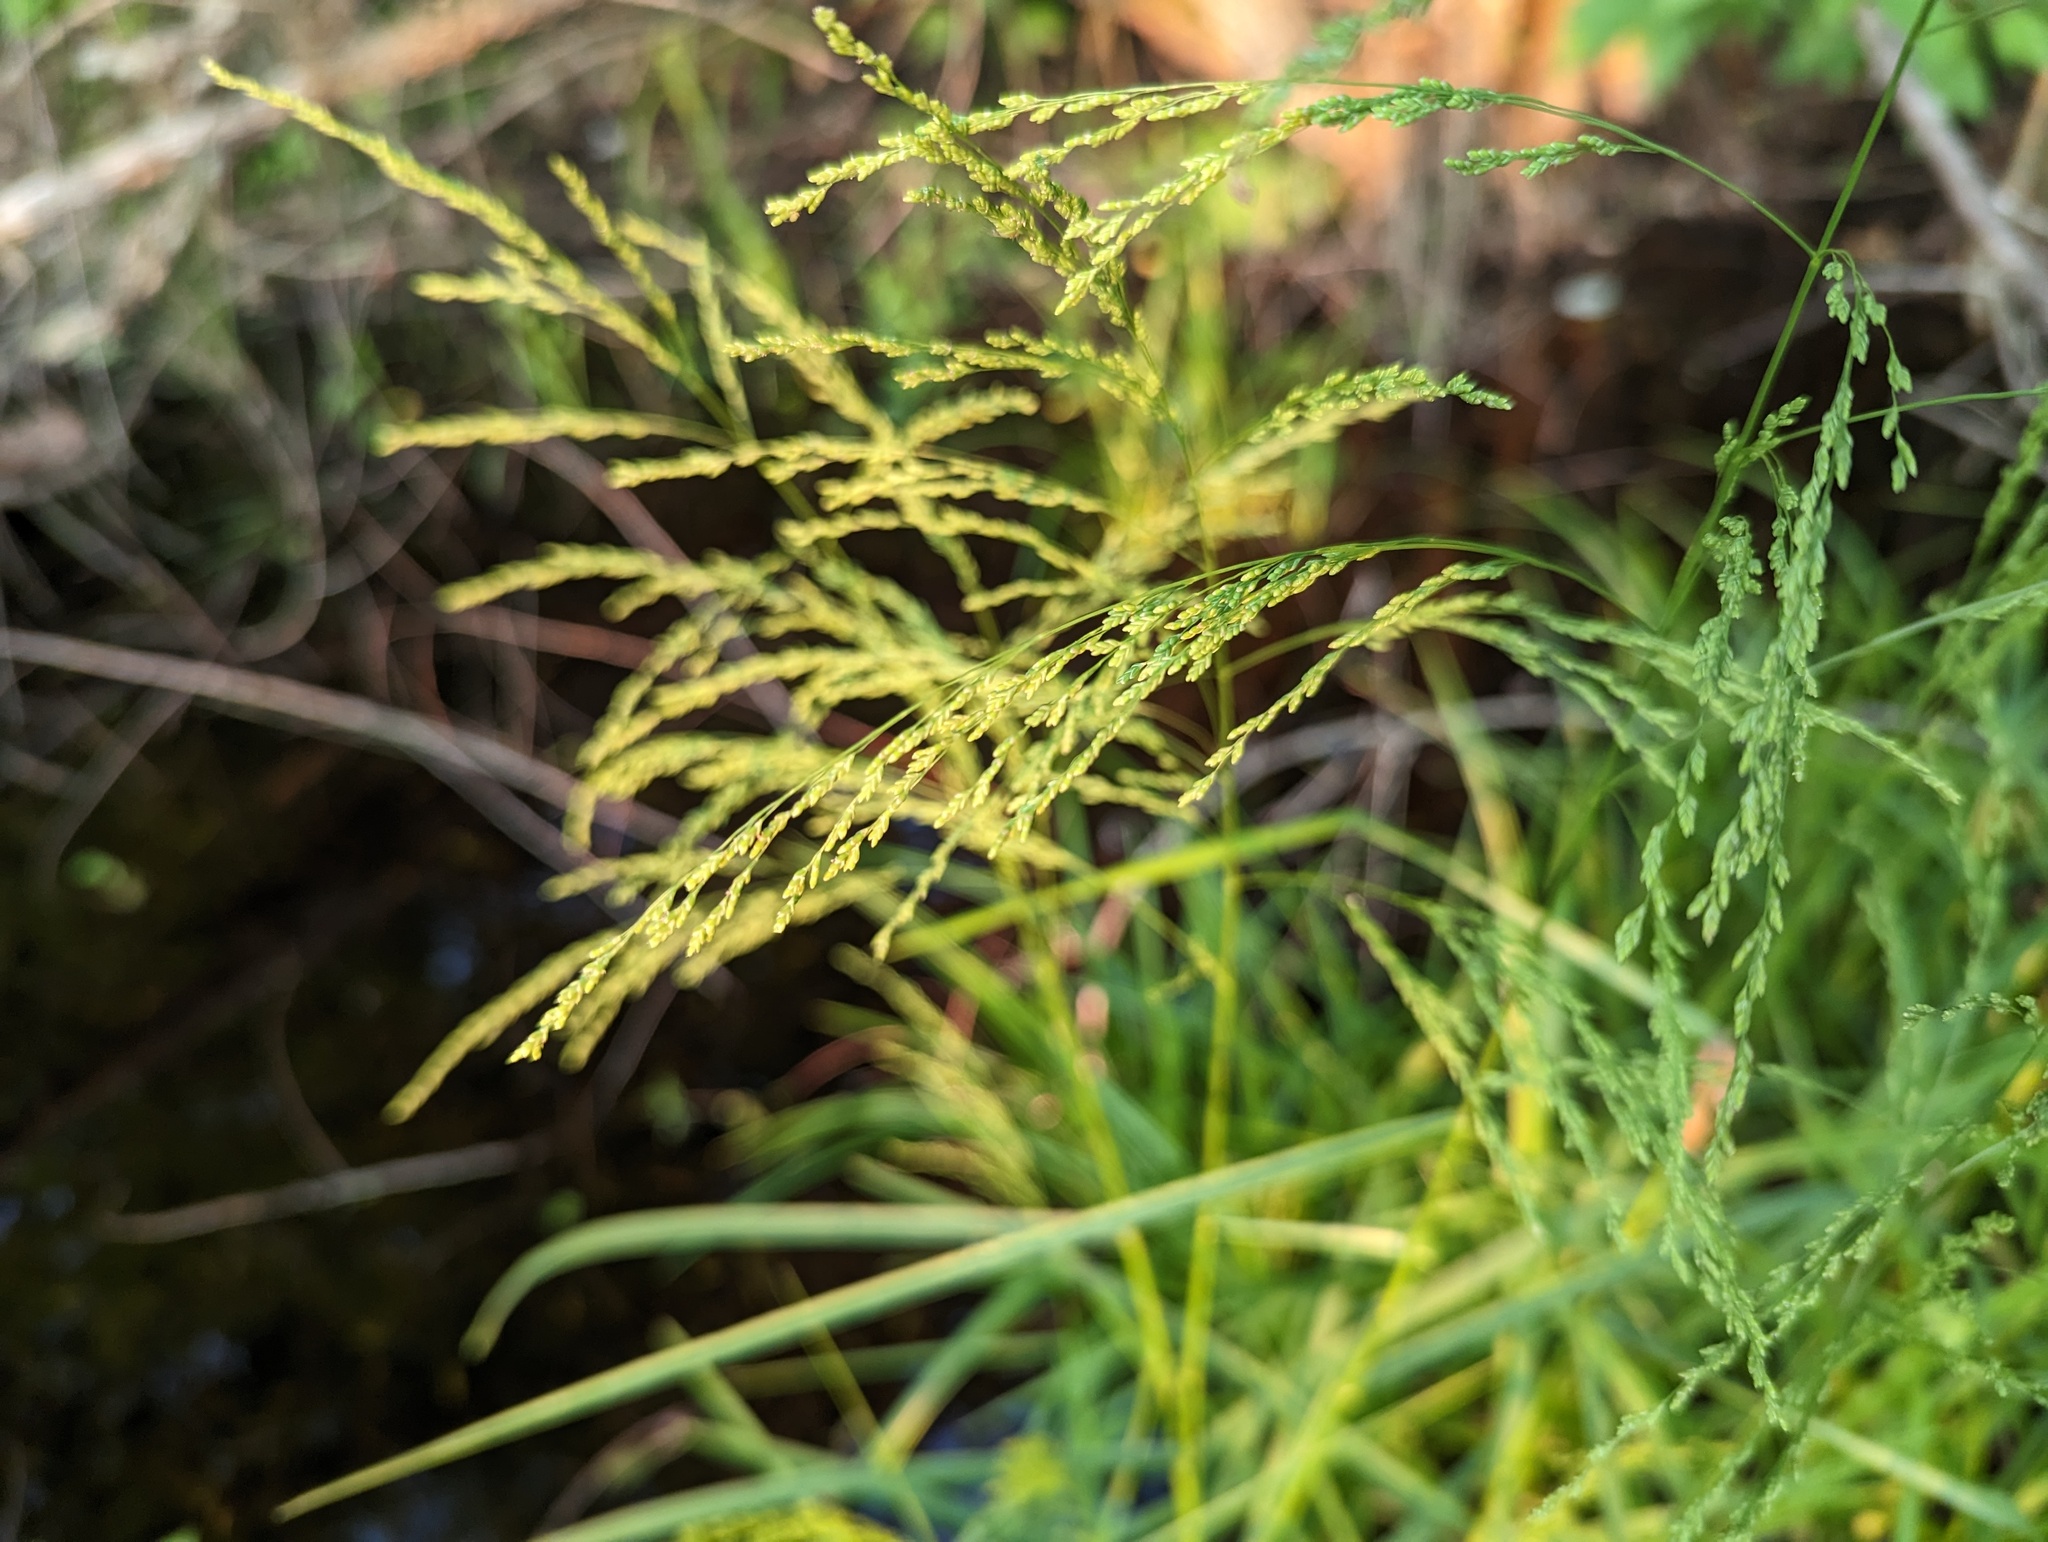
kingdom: Plantae
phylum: Tracheophyta
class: Liliopsida
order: Poales
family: Poaceae
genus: Glyceria
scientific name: Glyceria striata
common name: Fowl manna grass
